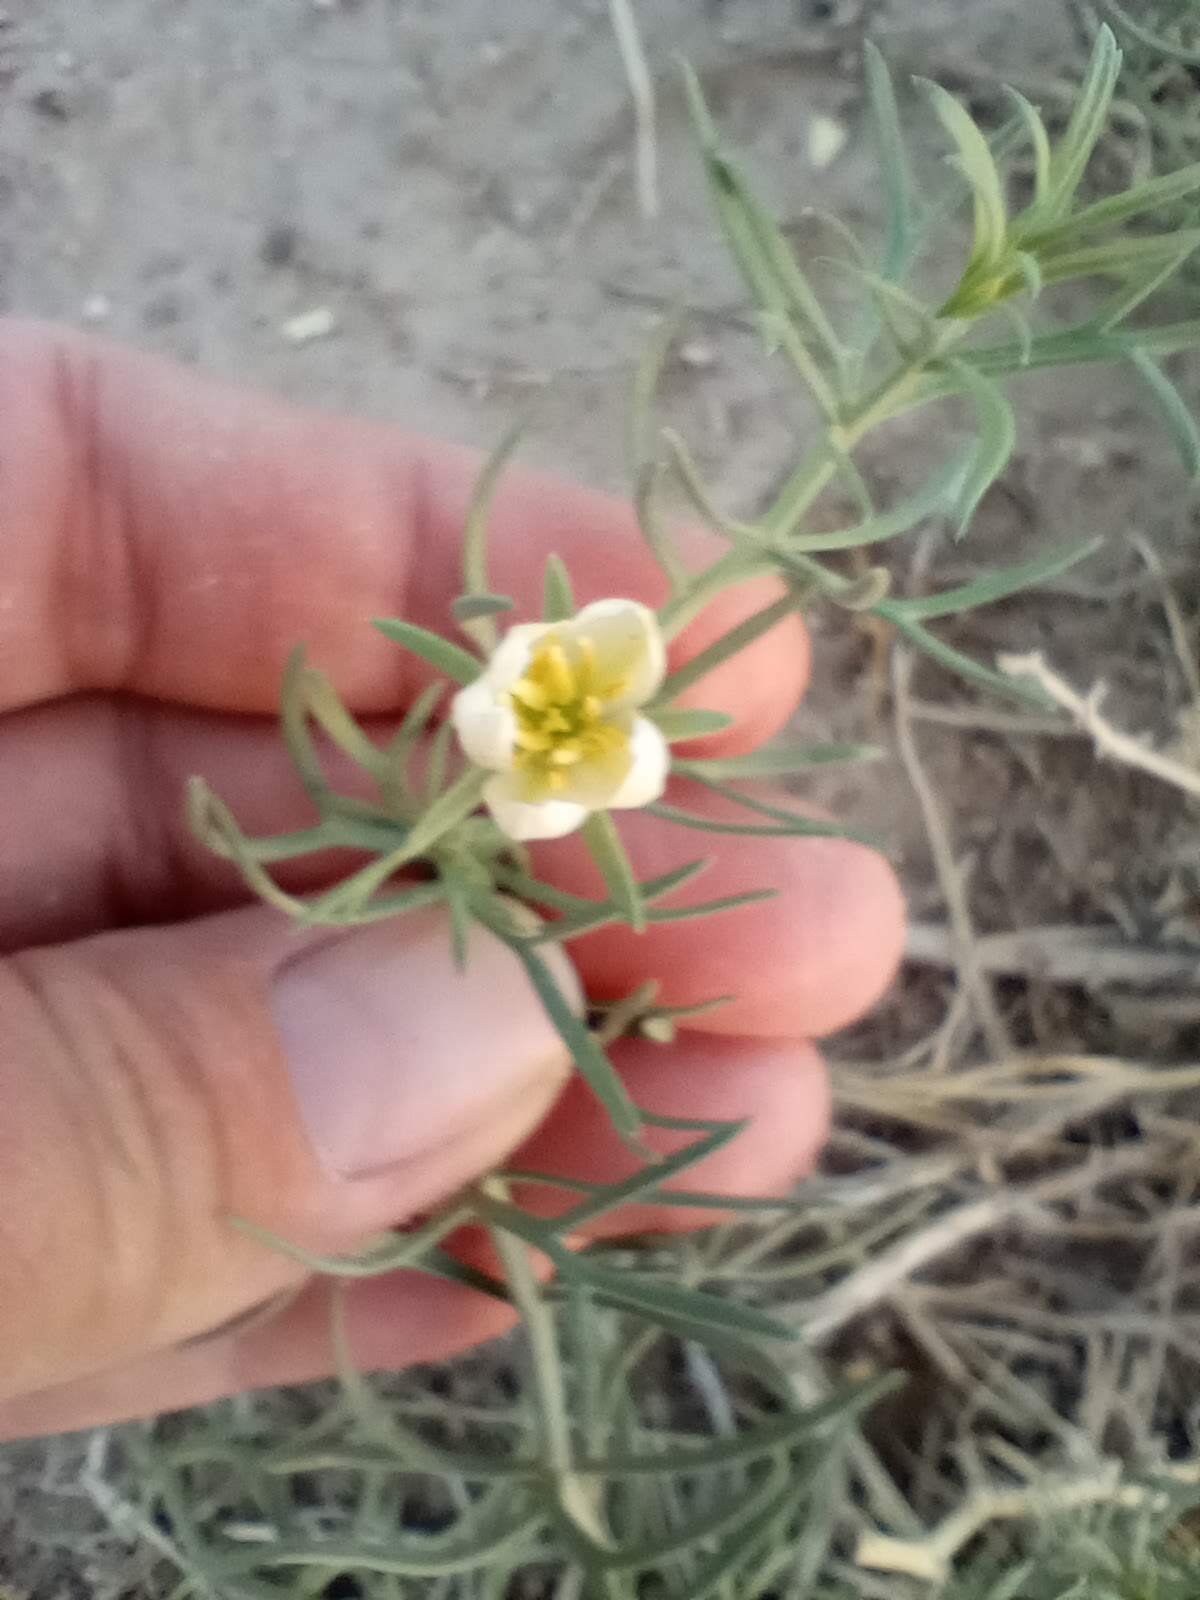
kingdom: Plantae
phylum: Tracheophyta
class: Magnoliopsida
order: Sapindales
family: Tetradiclidaceae
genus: Peganum
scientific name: Peganum harmala
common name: Harmal peganum
